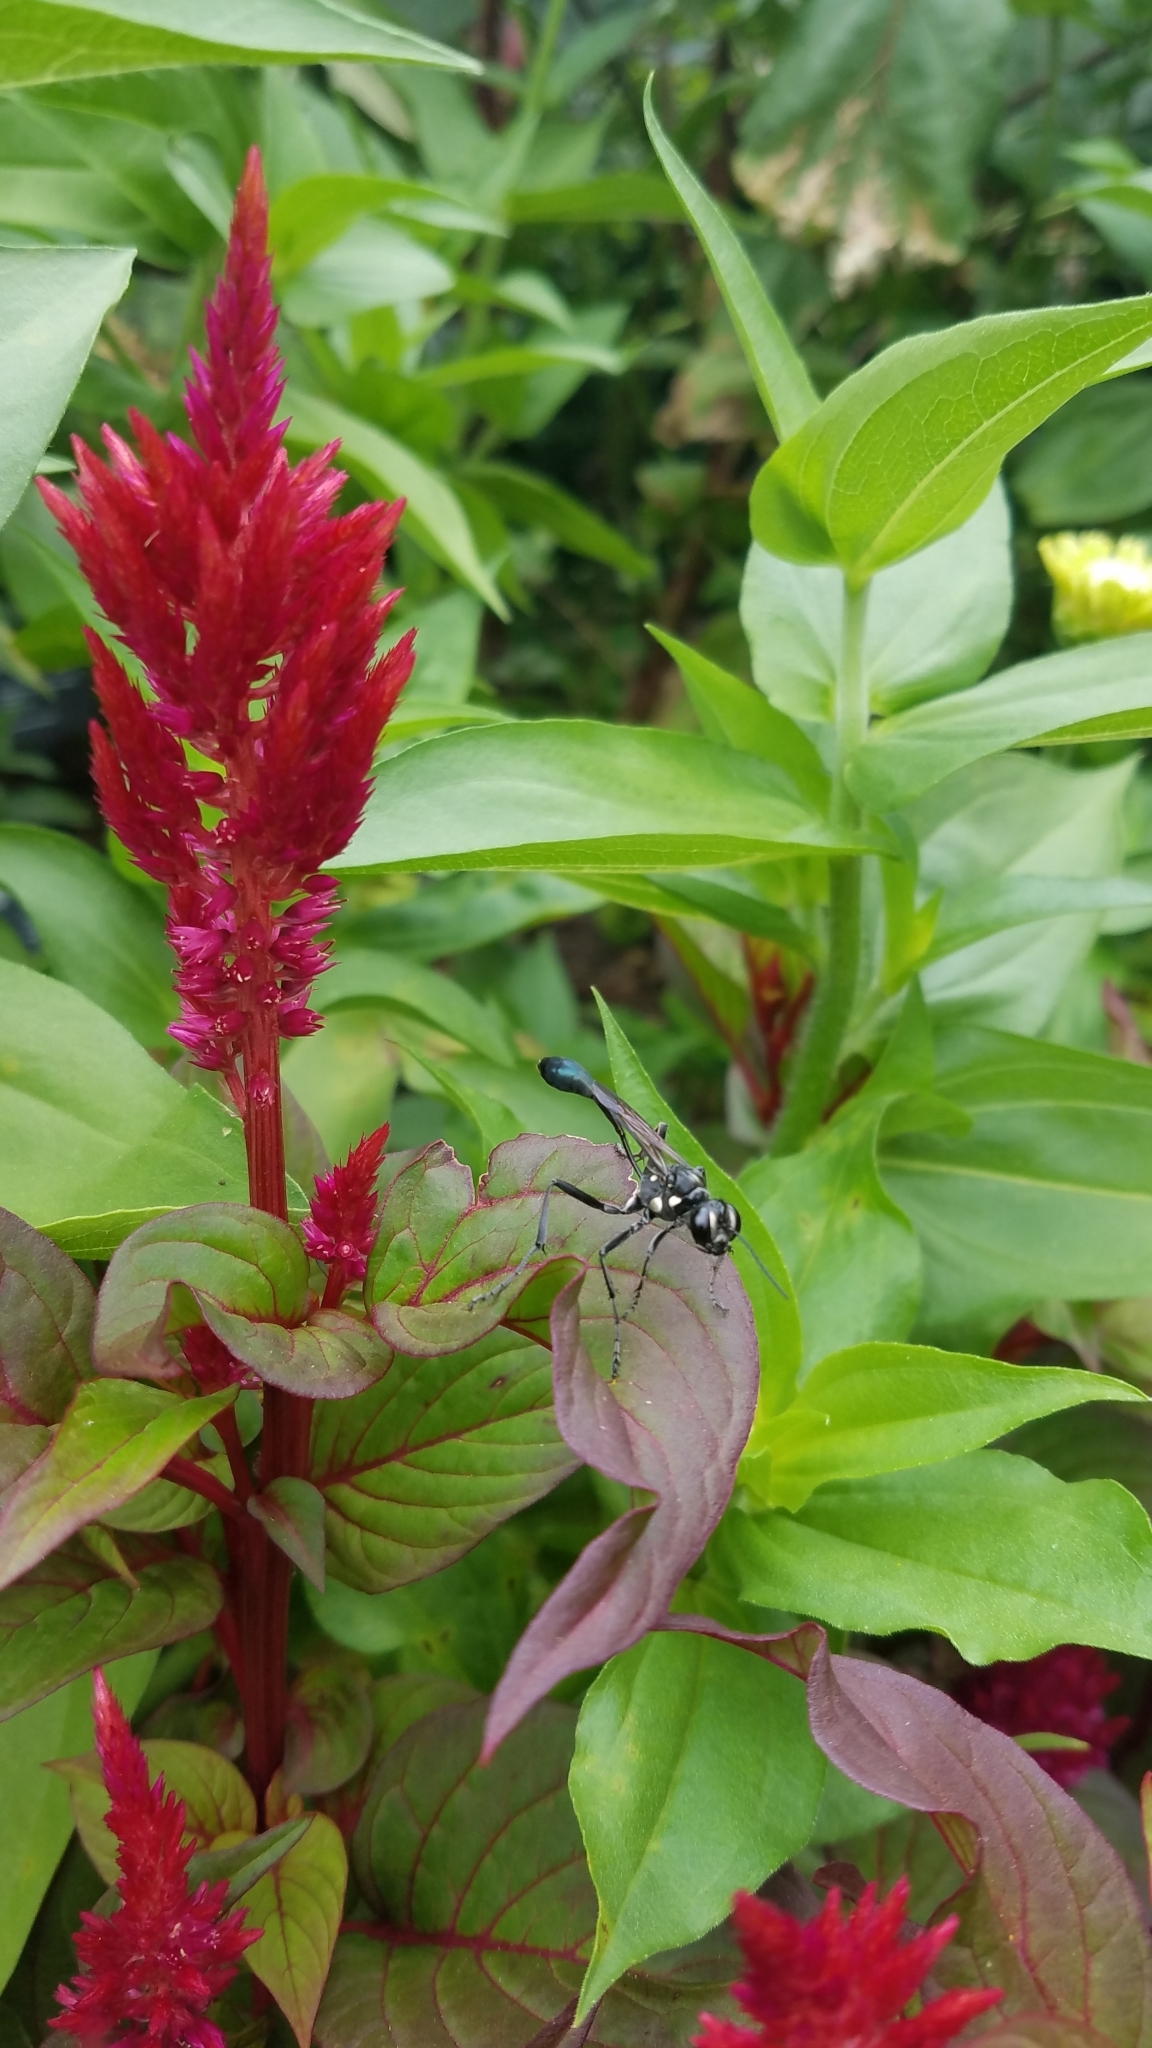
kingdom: Animalia
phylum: Arthropoda
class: Insecta
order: Hymenoptera
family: Sphecidae
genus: Eremnophila
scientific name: Eremnophila aureonotata
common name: Gold-marked thread-waisted wasp
